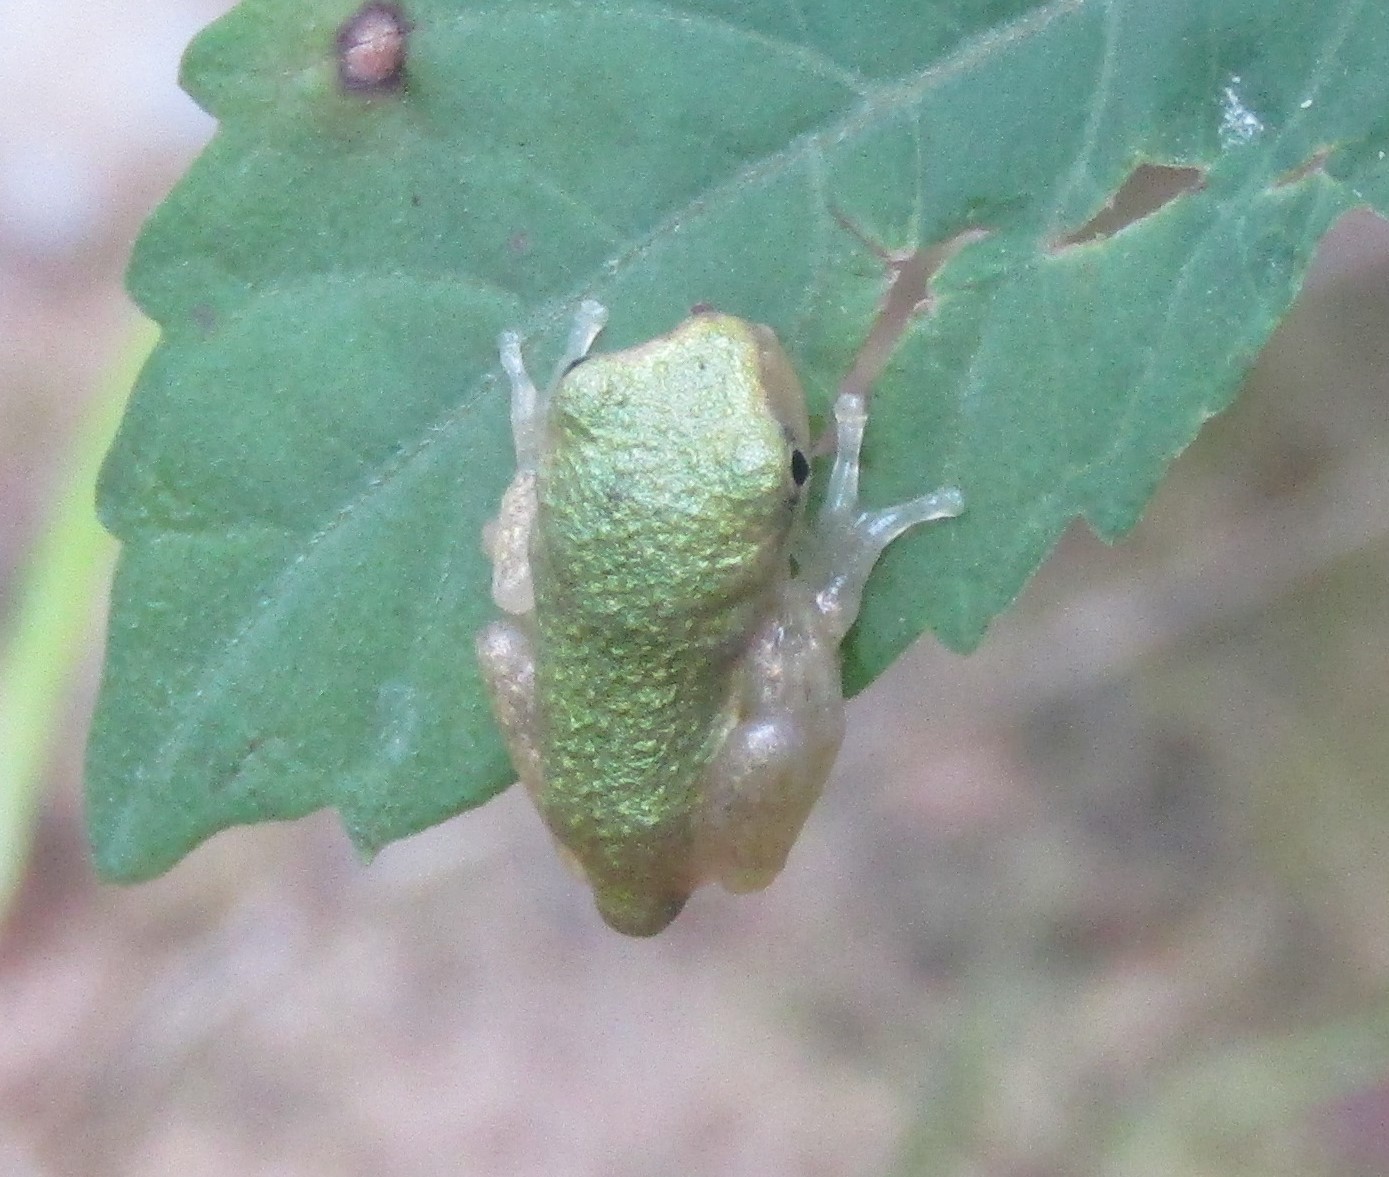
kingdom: Animalia
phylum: Chordata
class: Amphibia
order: Anura
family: Hylidae
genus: Dryophytes
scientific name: Dryophytes chrysoscelis
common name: Cope's gray treefrog
